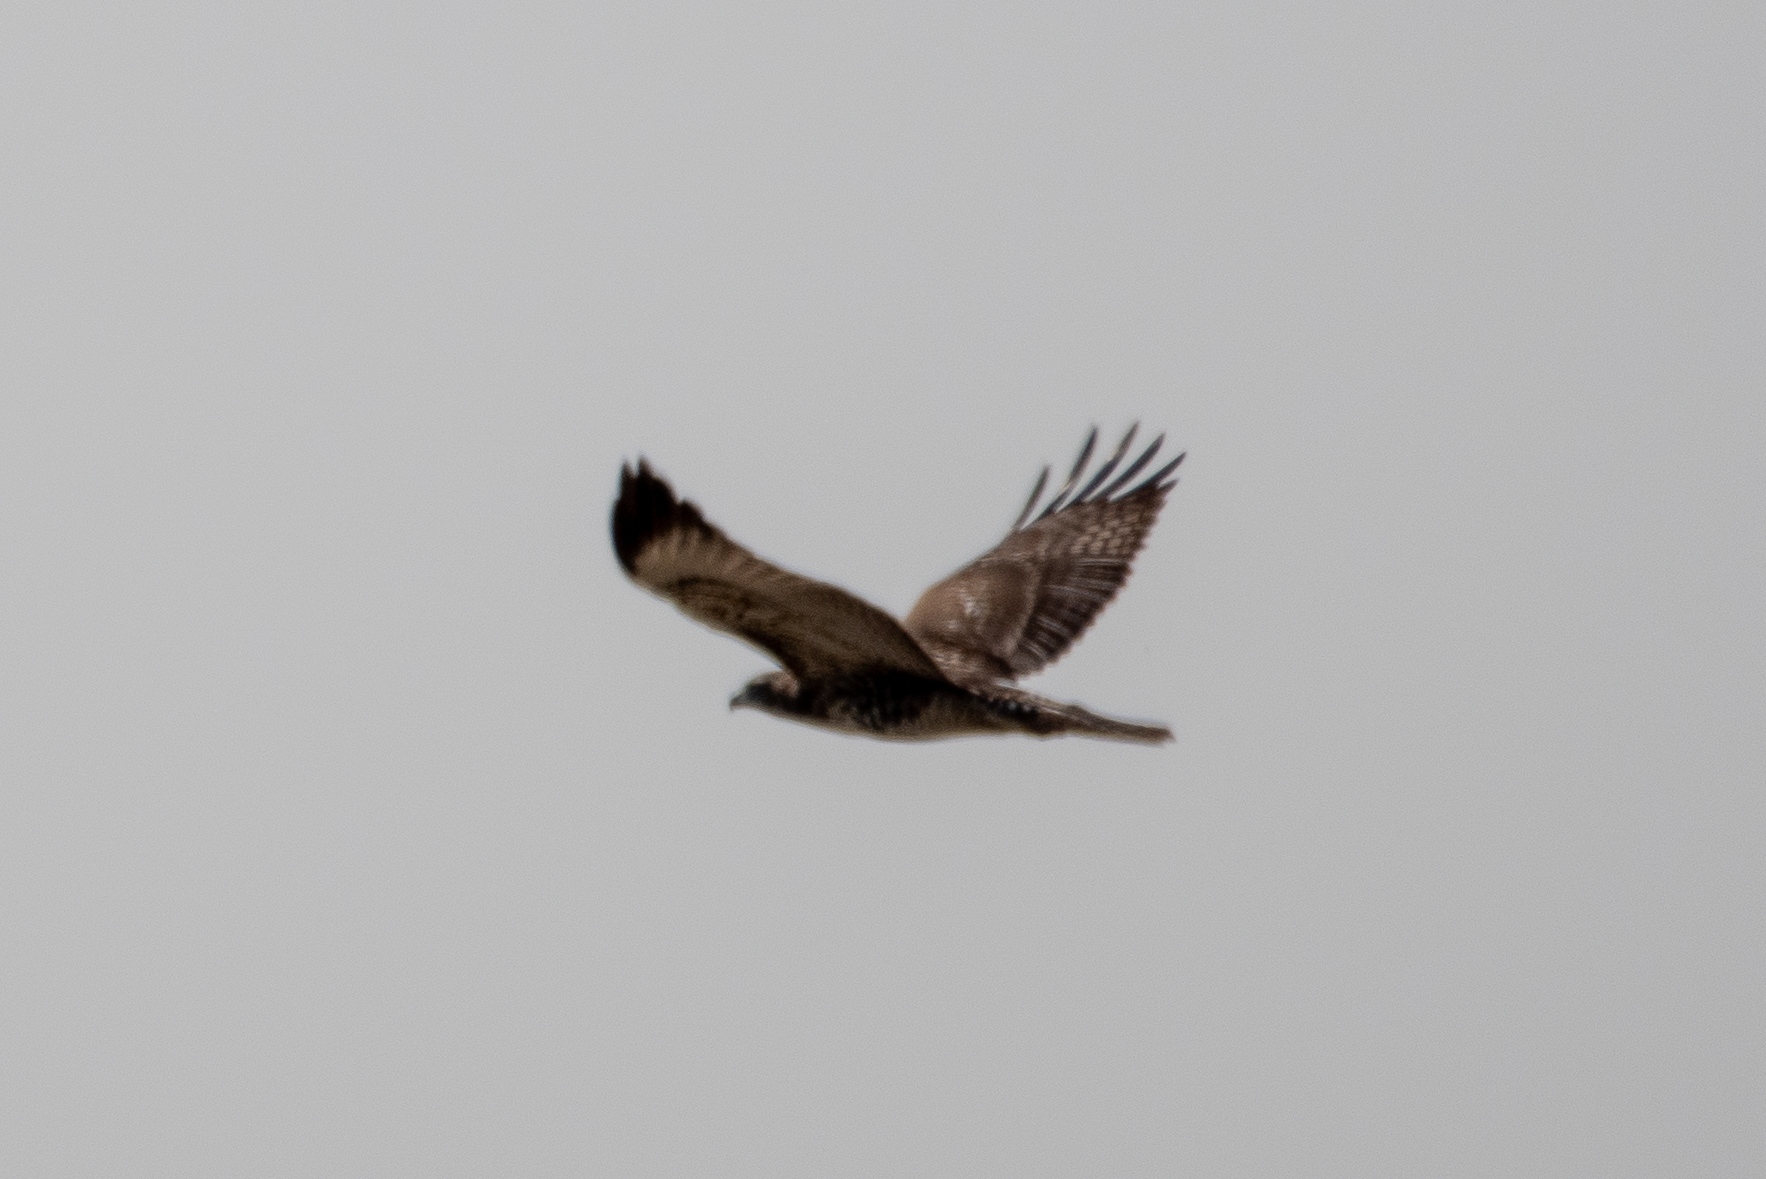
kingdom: Animalia
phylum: Chordata
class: Aves
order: Accipitriformes
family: Accipitridae
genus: Buteo
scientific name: Buteo jamaicensis
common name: Red-tailed hawk
